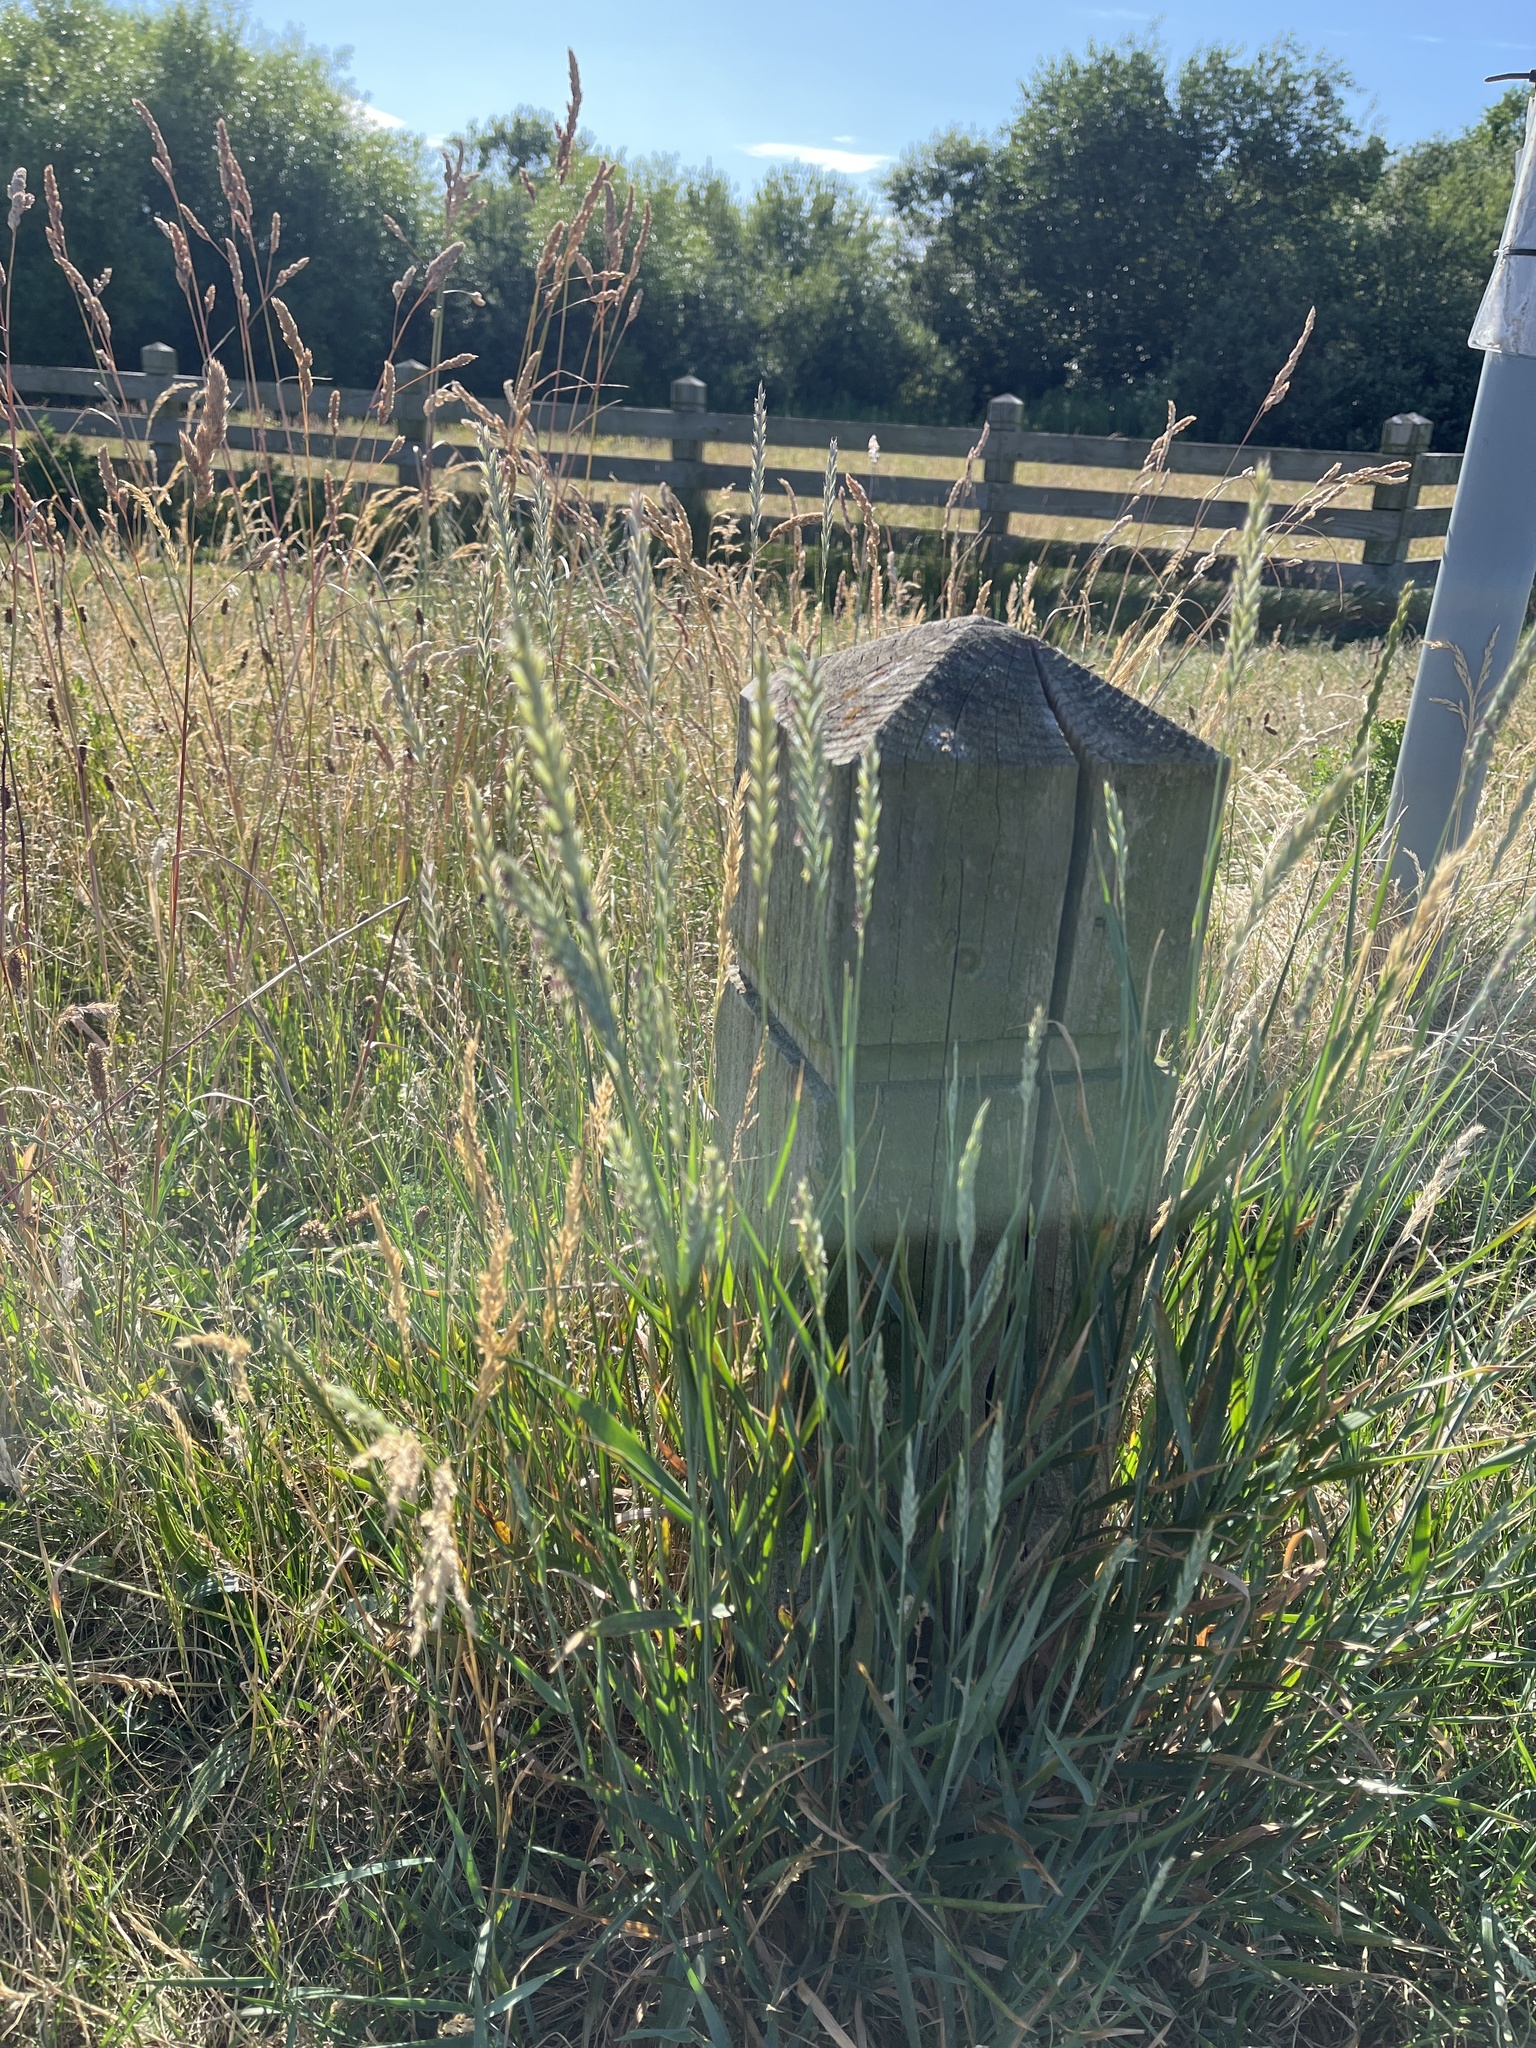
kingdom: Plantae
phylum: Tracheophyta
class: Liliopsida
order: Poales
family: Poaceae
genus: Elymus
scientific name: Elymus repens
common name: Quackgrass
